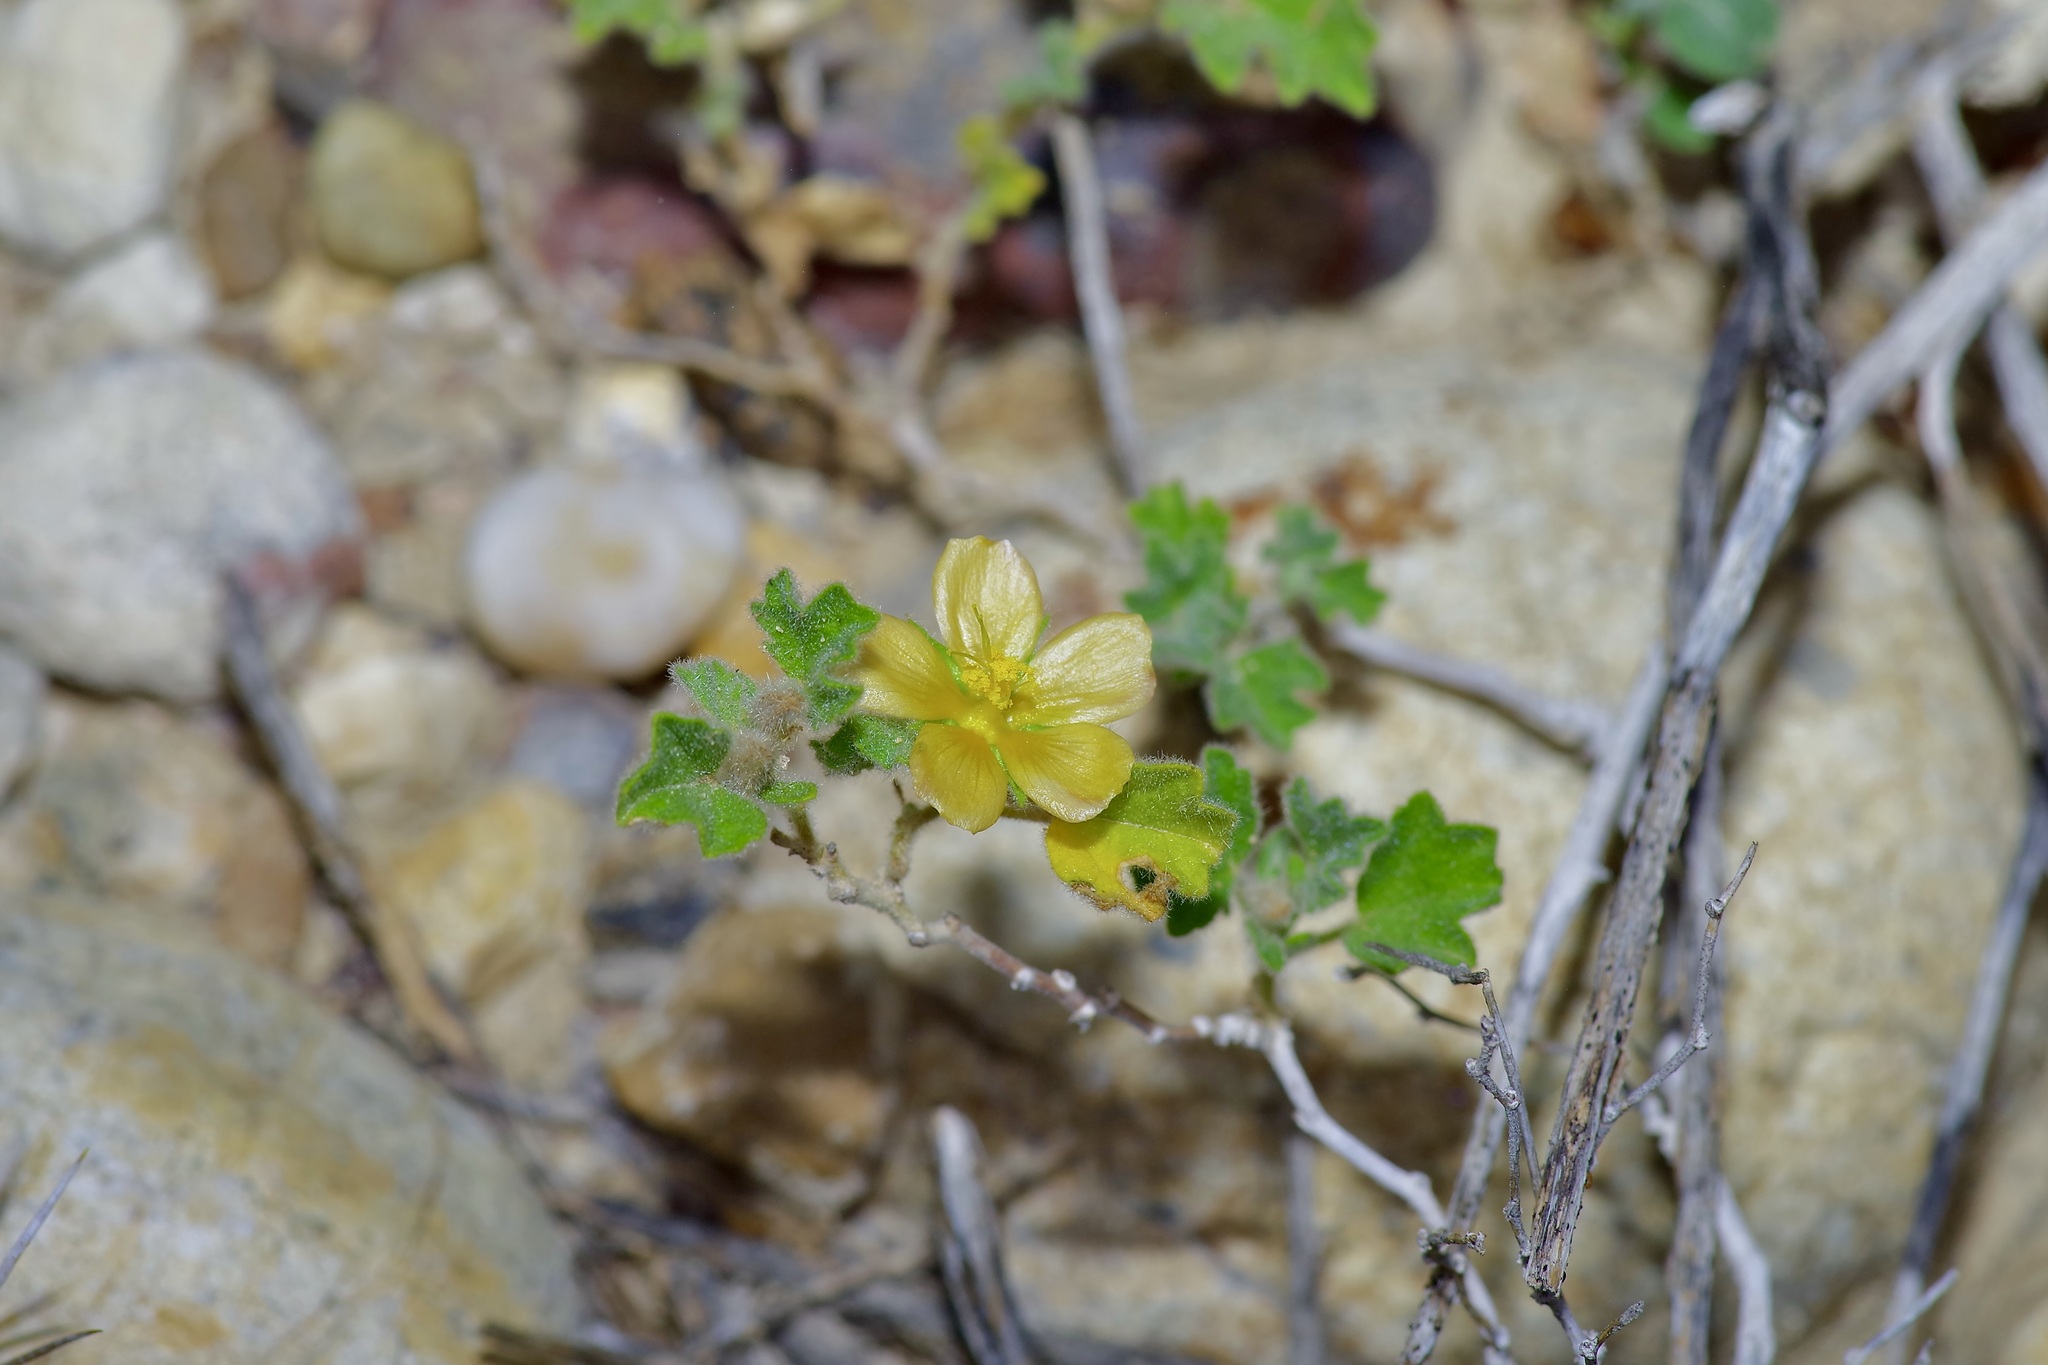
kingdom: Plantae
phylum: Tracheophyta
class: Magnoliopsida
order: Malvales
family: Malvaceae
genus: Billieturnera
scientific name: Billieturnera helleri
